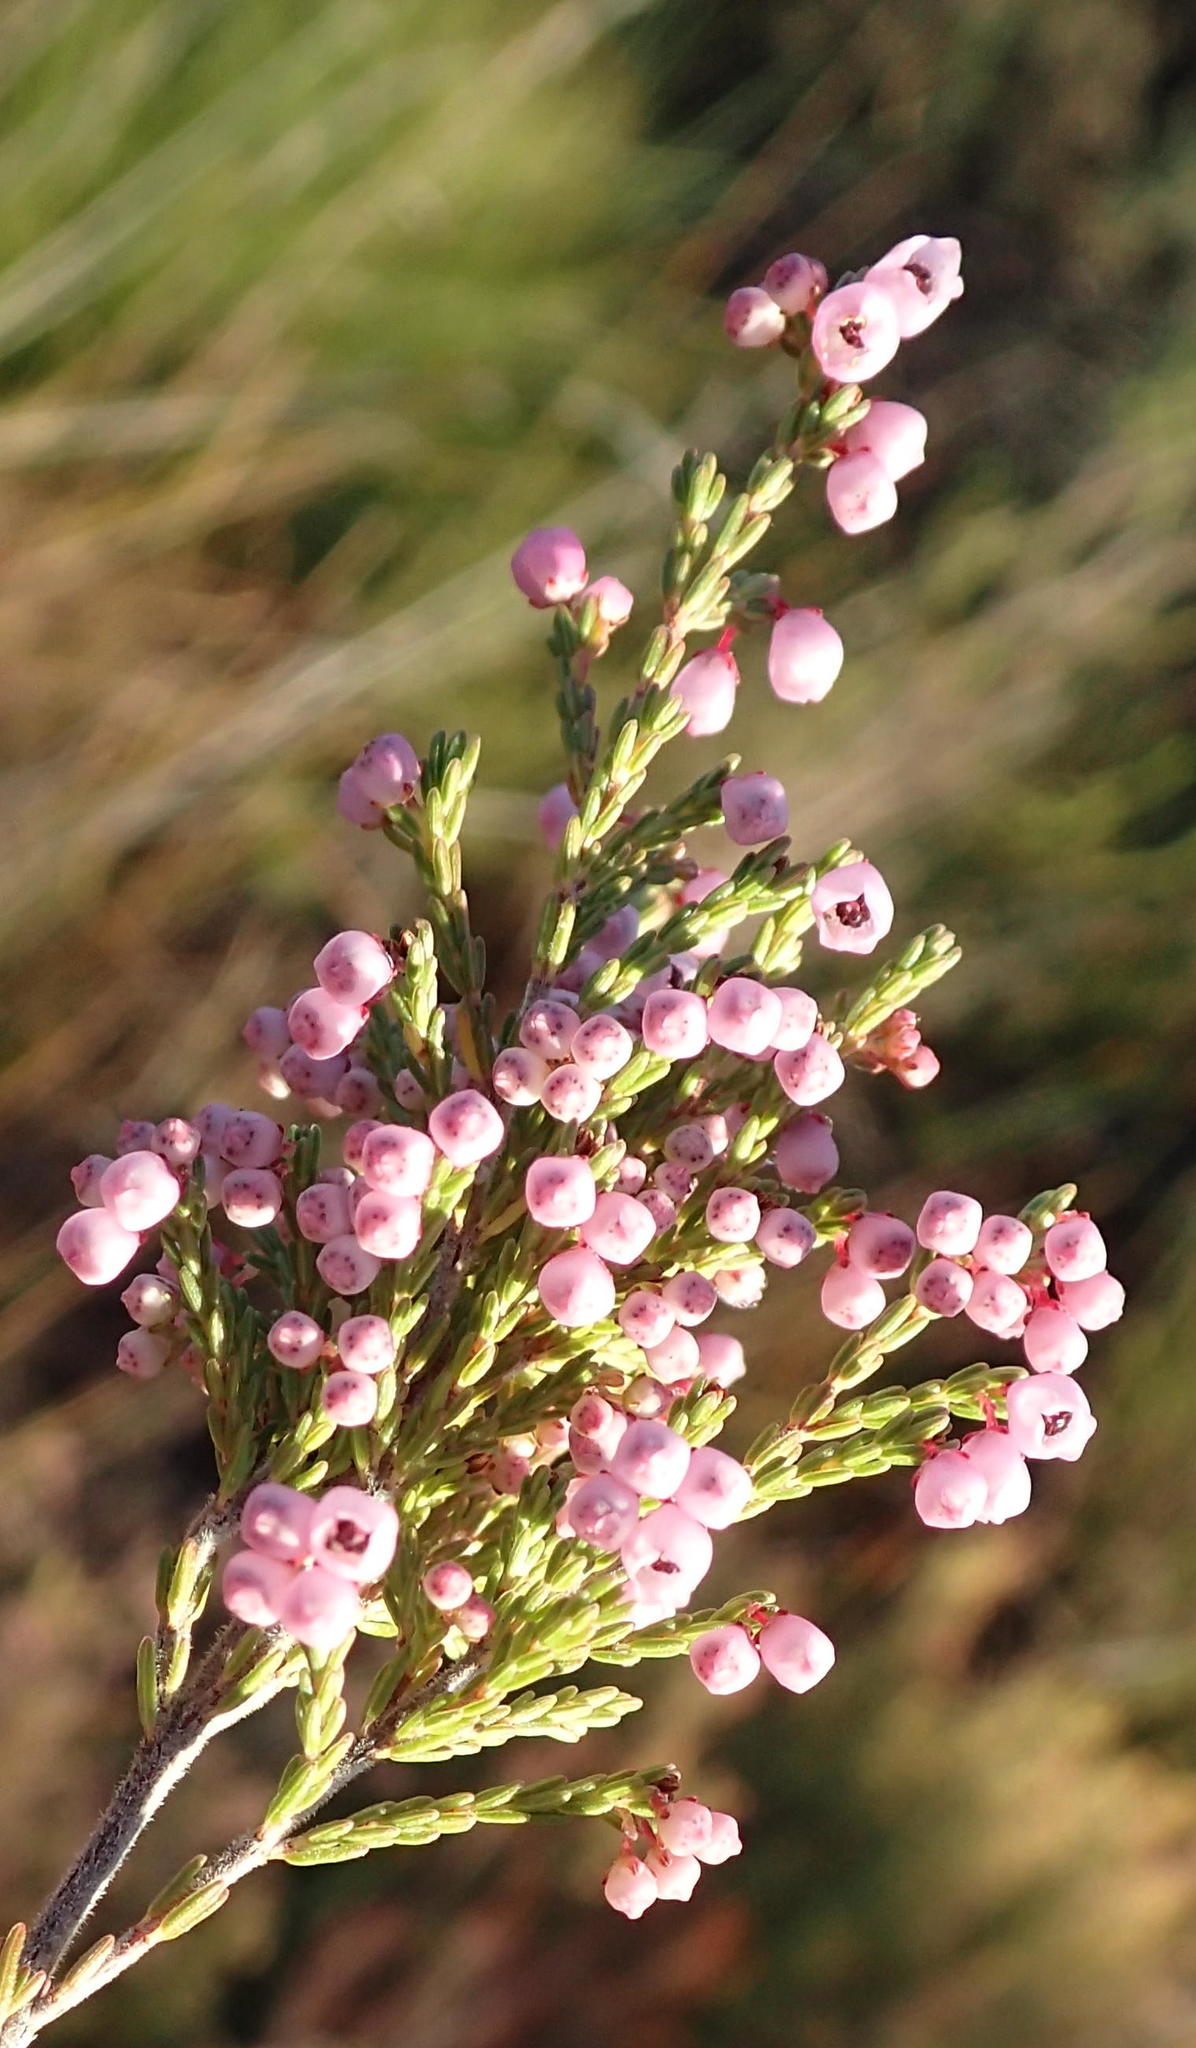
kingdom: Plantae
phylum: Tracheophyta
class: Magnoliopsida
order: Ericales
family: Ericaceae
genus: Erica
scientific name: Erica quadrangularis
